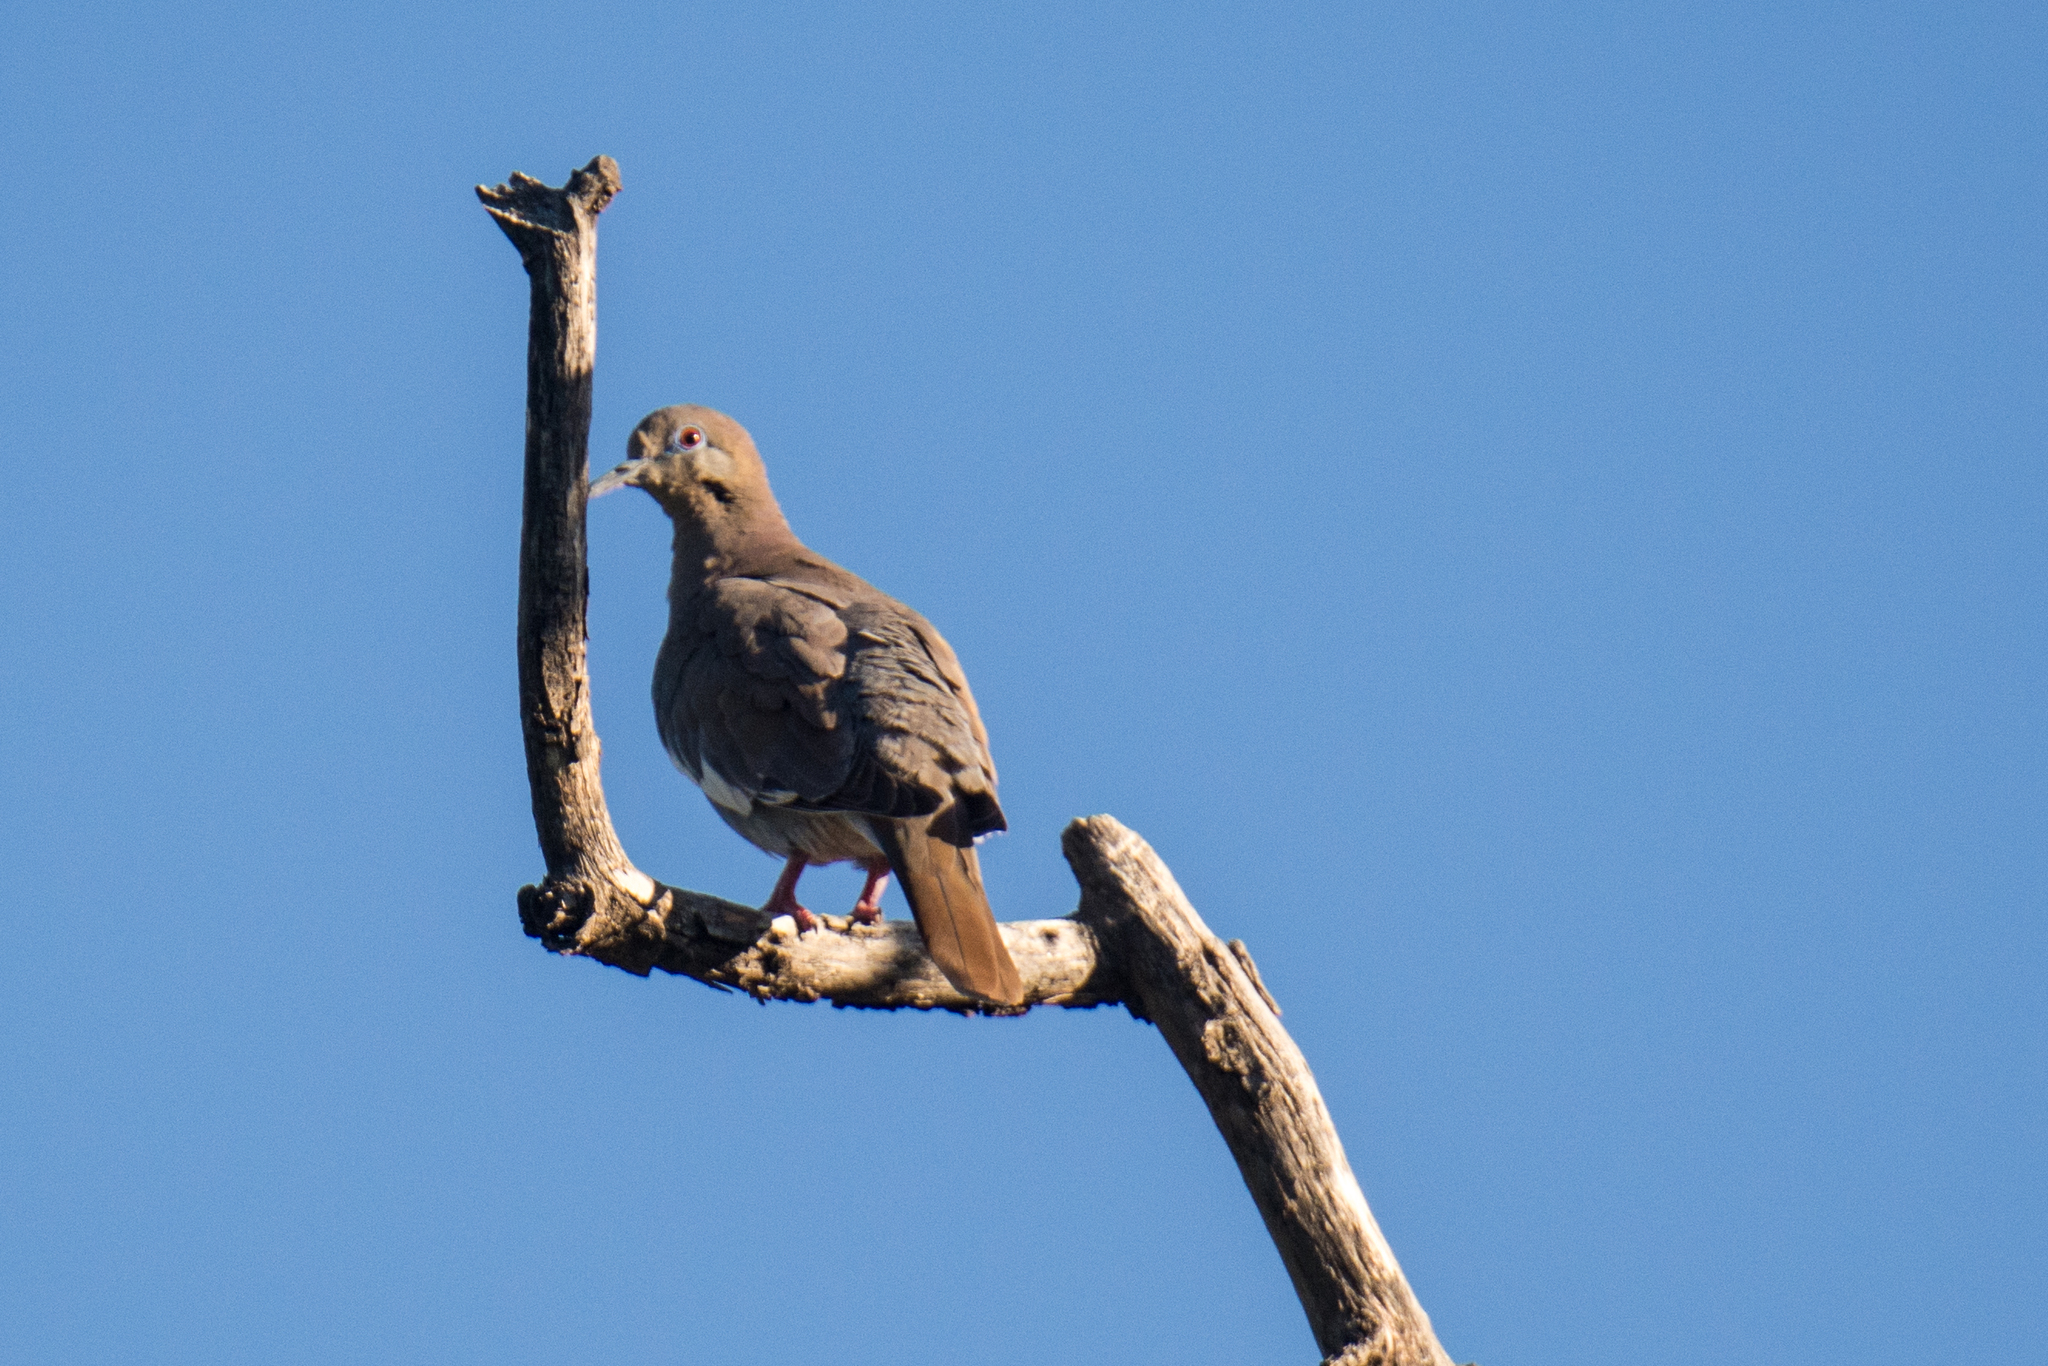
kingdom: Animalia
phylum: Chordata
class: Aves
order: Columbiformes
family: Columbidae
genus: Zenaida
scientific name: Zenaida asiatica
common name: White-winged dove
